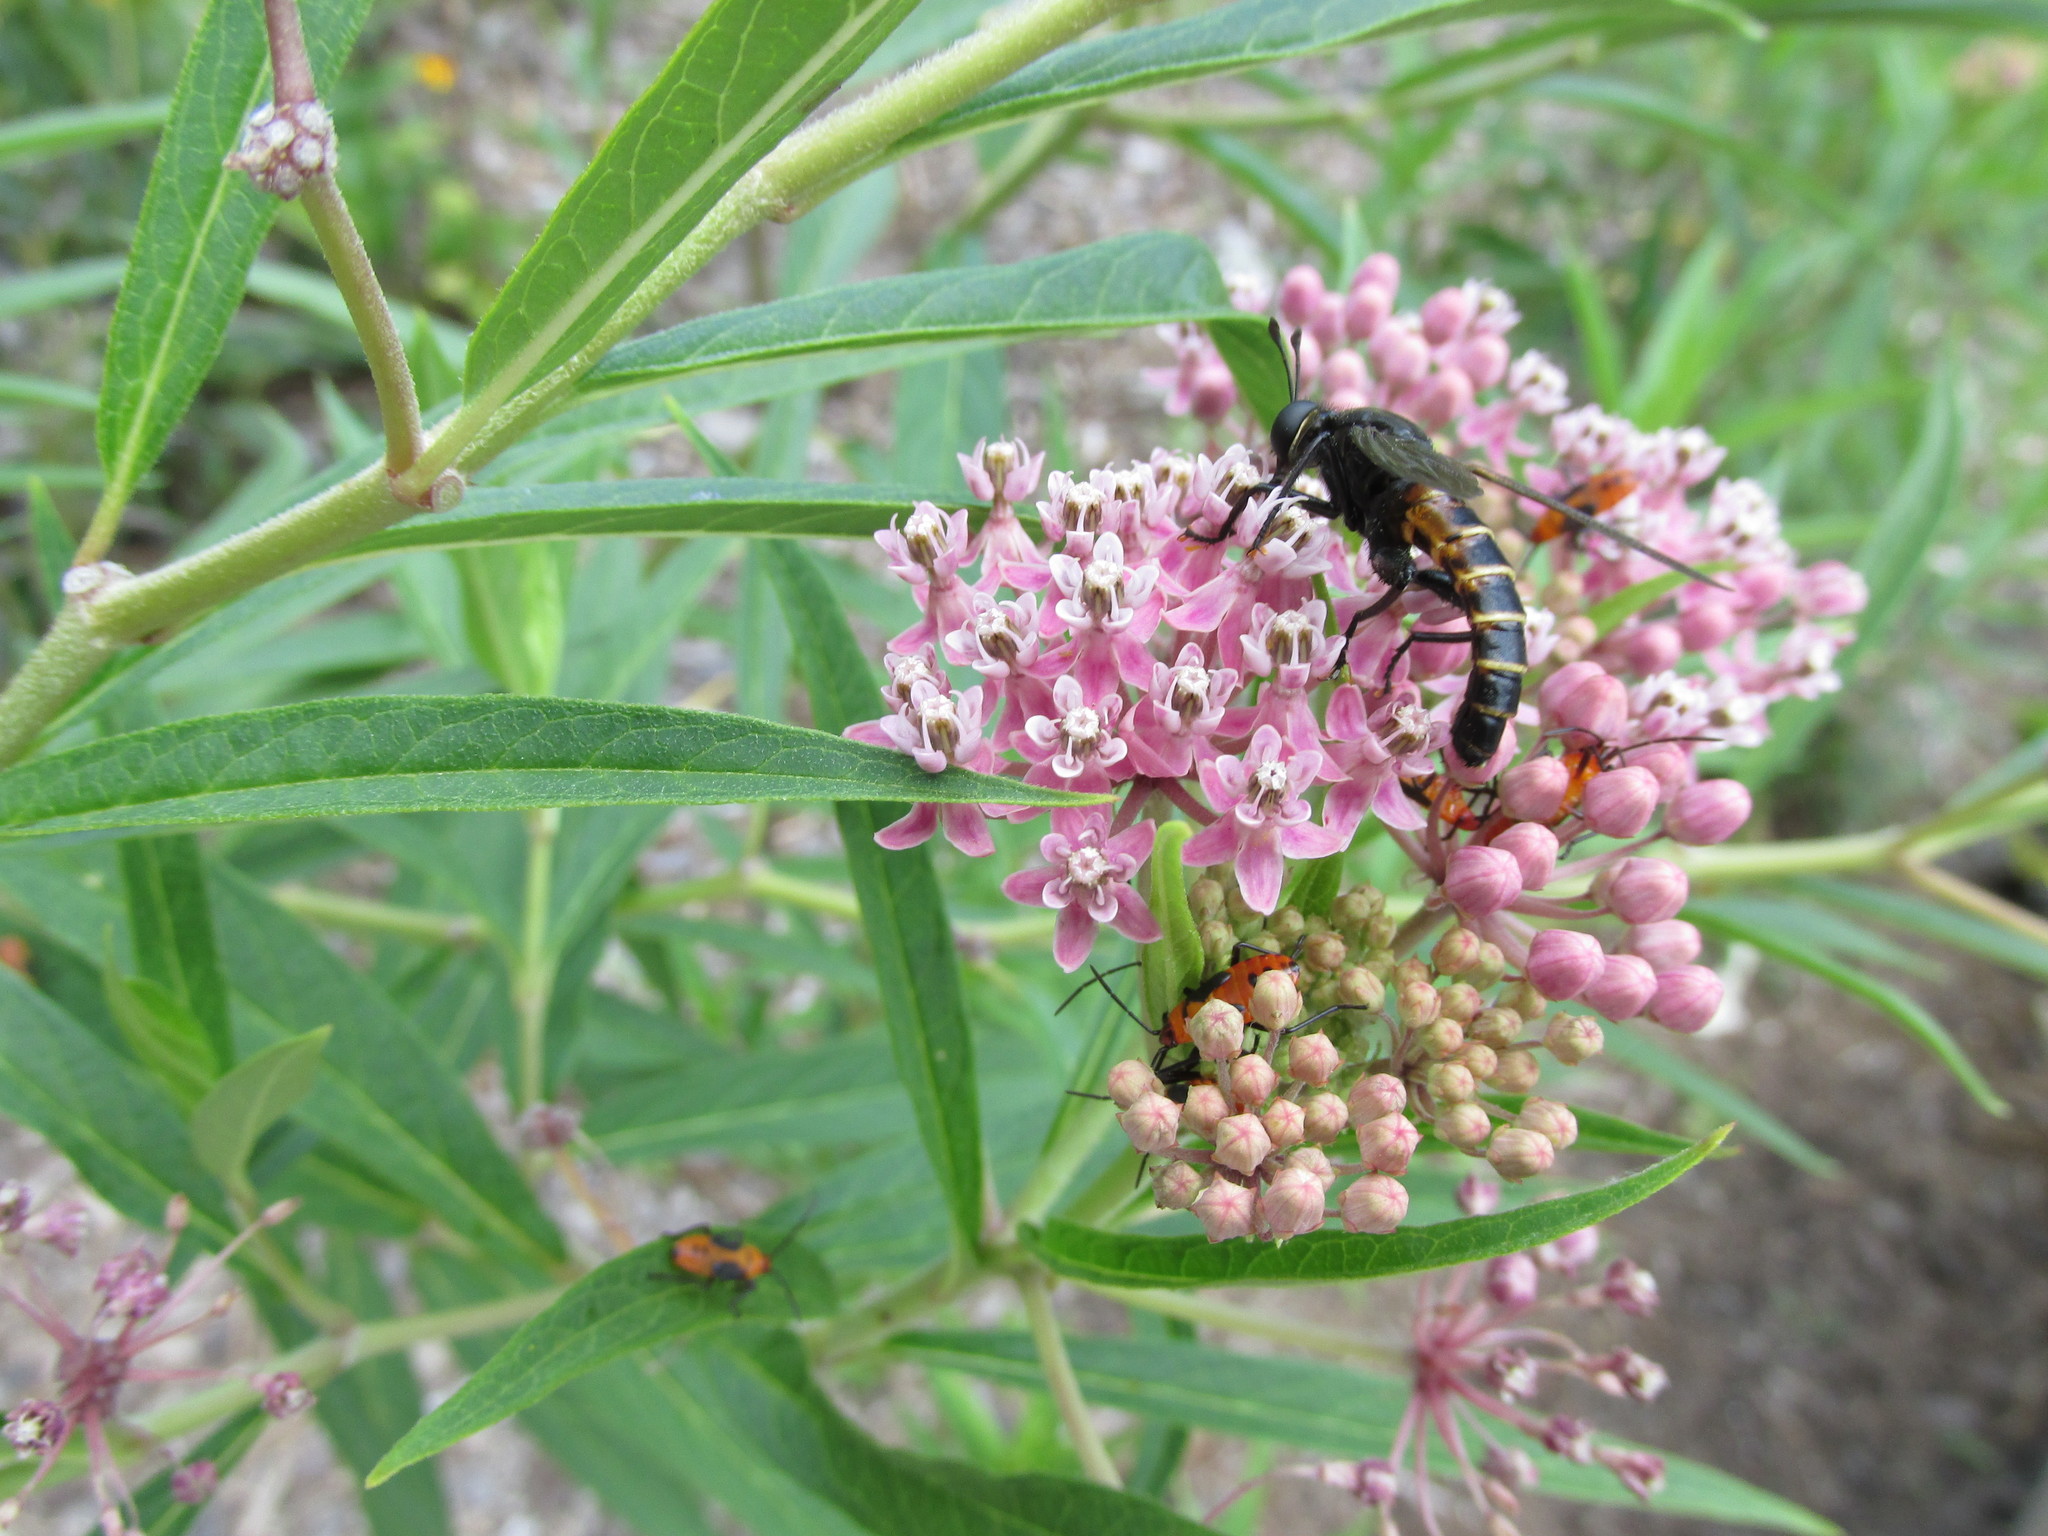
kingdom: Animalia
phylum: Arthropoda
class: Insecta
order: Diptera
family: Mydidae
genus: Mydas
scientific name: Mydas maculiventris
